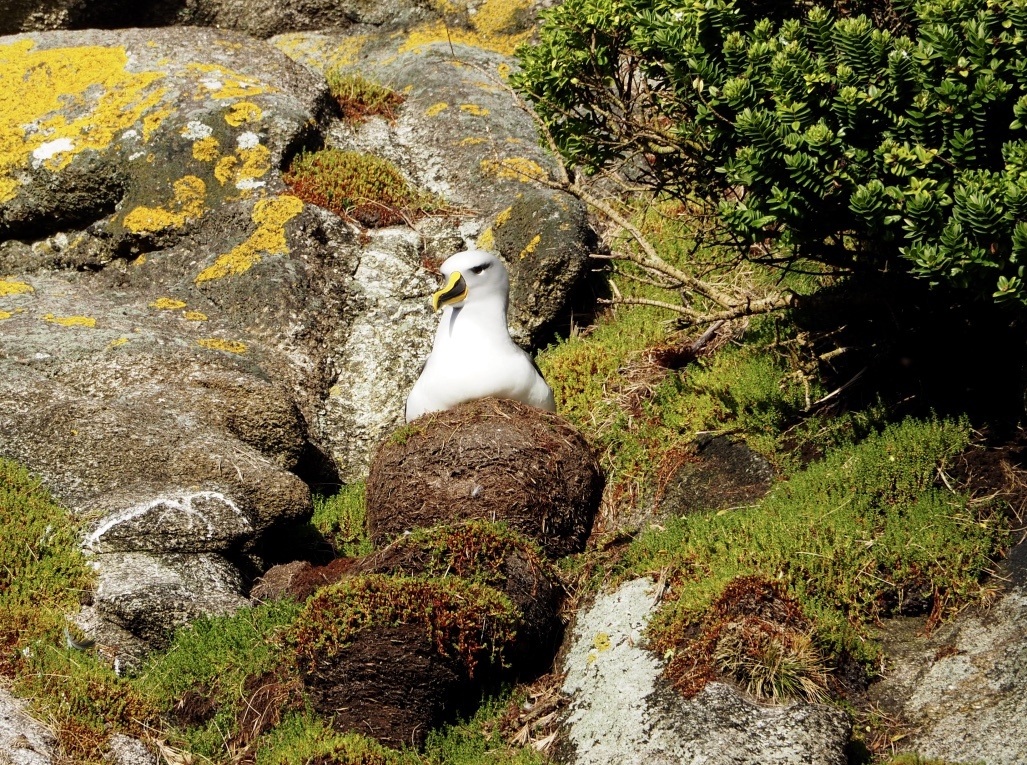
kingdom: Animalia
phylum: Chordata
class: Aves
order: Procellariiformes
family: Diomedeidae
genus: Thalassarche
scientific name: Thalassarche bulleri
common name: Buller's albatross
